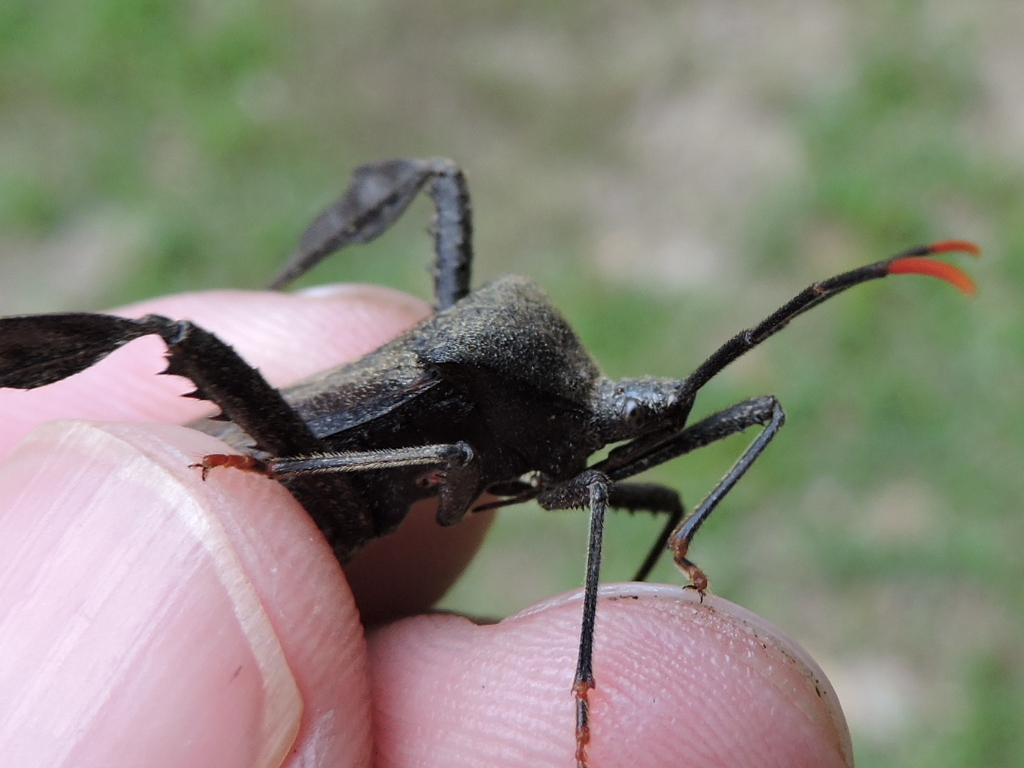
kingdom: Animalia
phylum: Arthropoda
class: Insecta
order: Hemiptera
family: Coreidae
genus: Acanthocephala
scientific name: Acanthocephala terminalis
